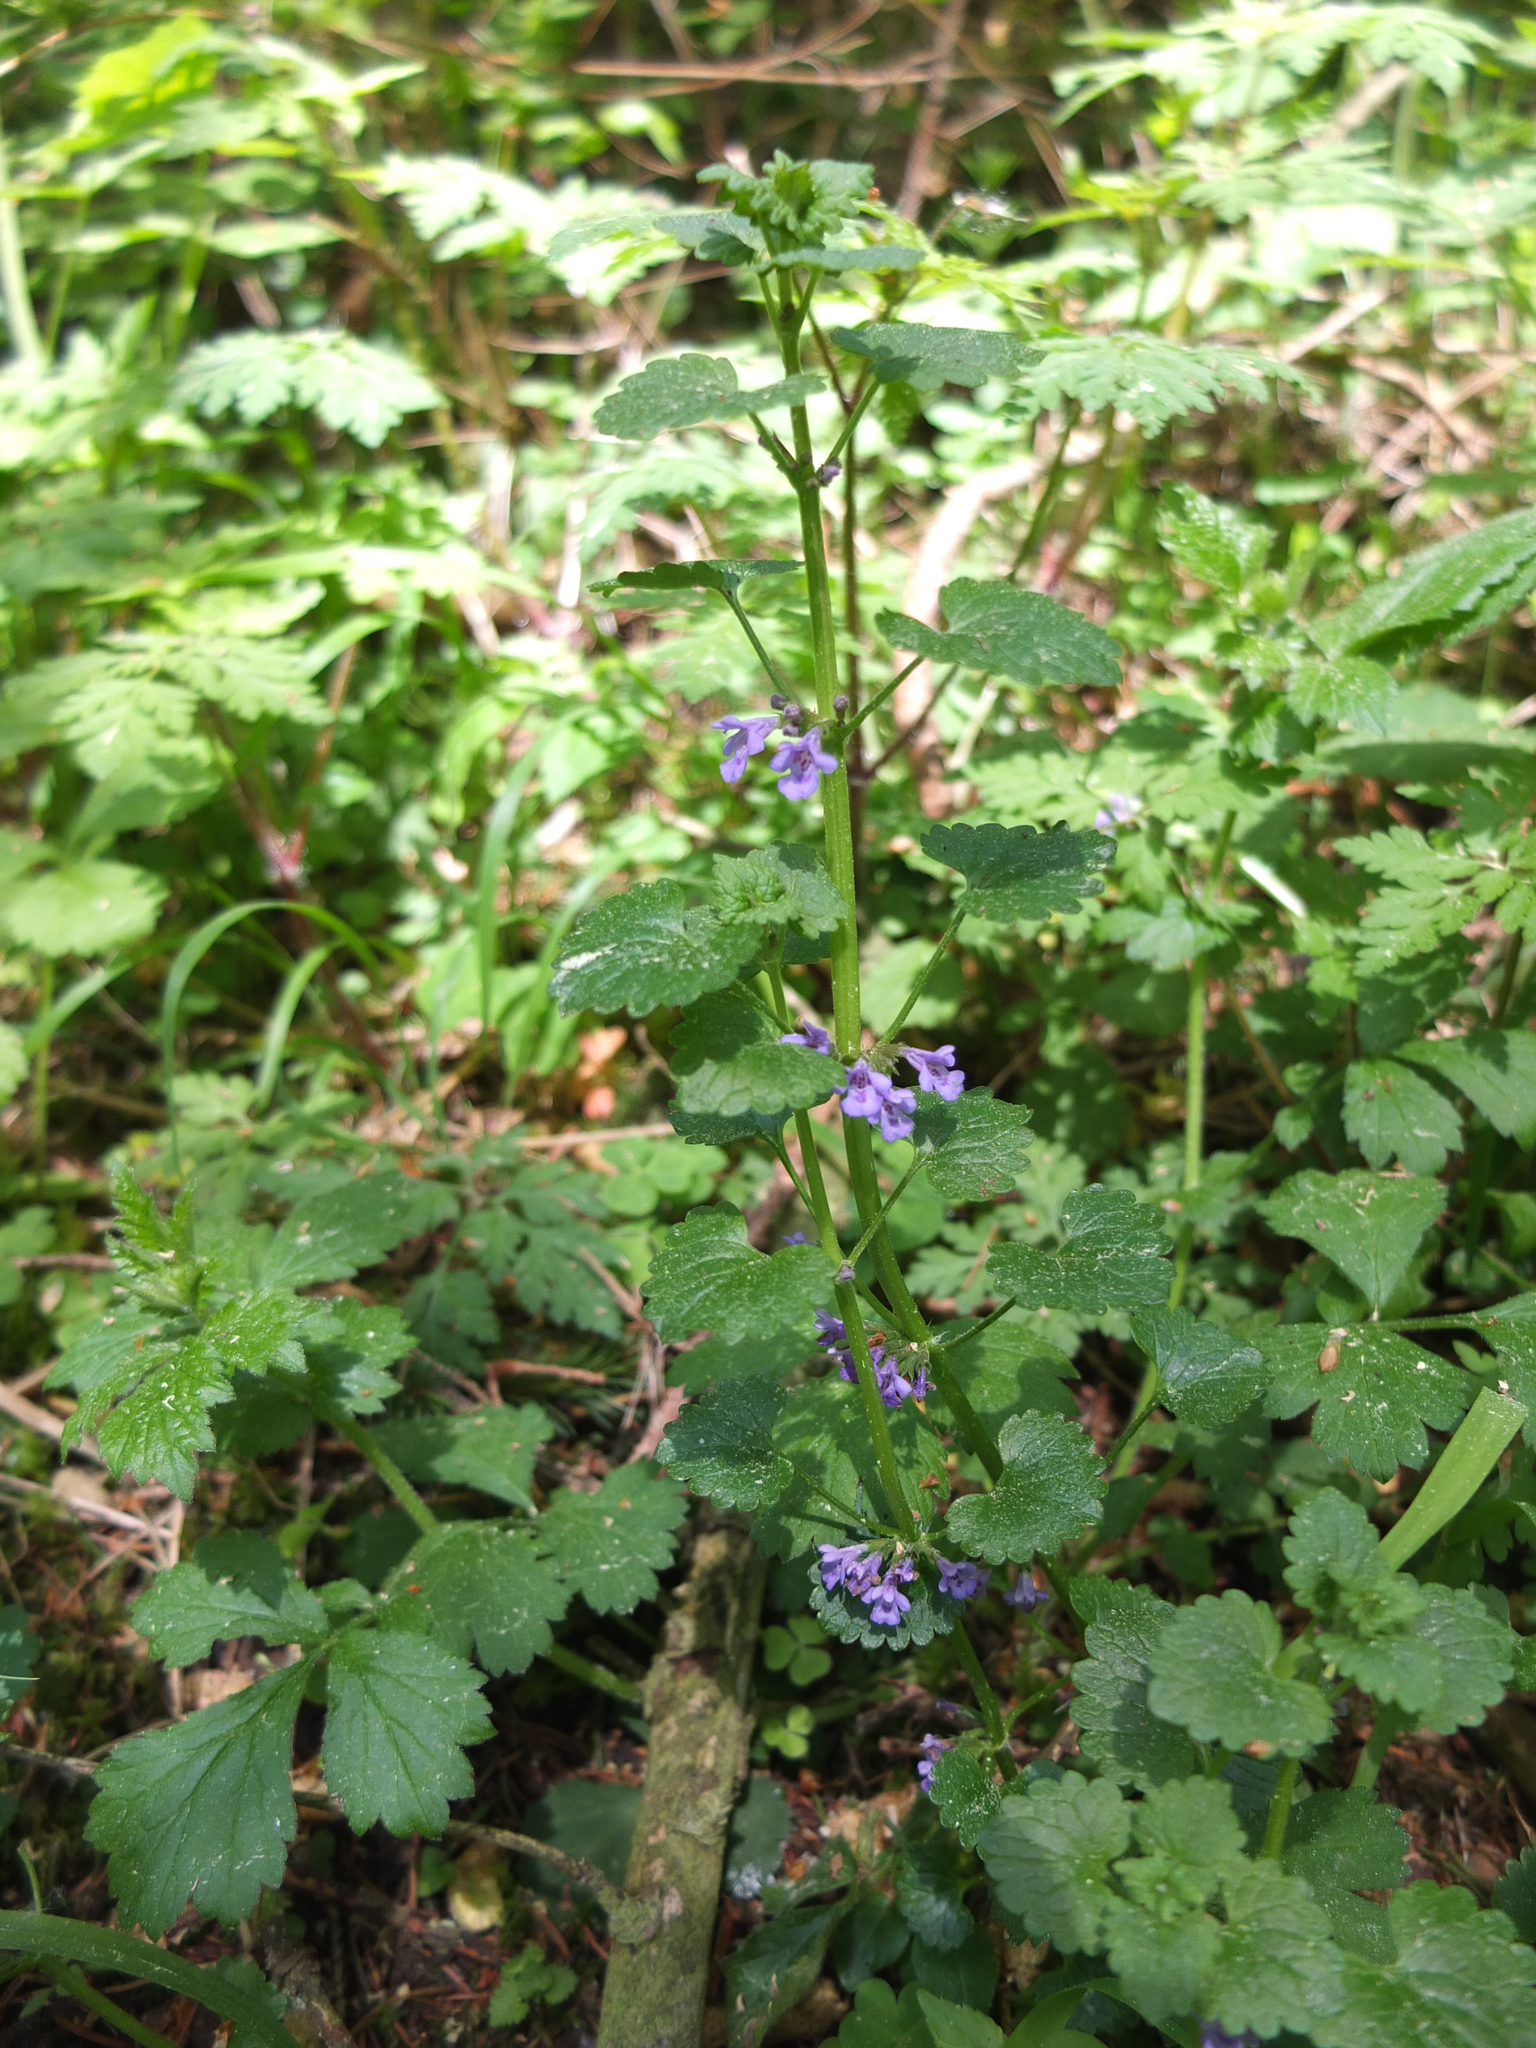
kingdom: Plantae
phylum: Tracheophyta
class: Magnoliopsida
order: Lamiales
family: Lamiaceae
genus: Glechoma
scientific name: Glechoma hederacea
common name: Ground ivy
